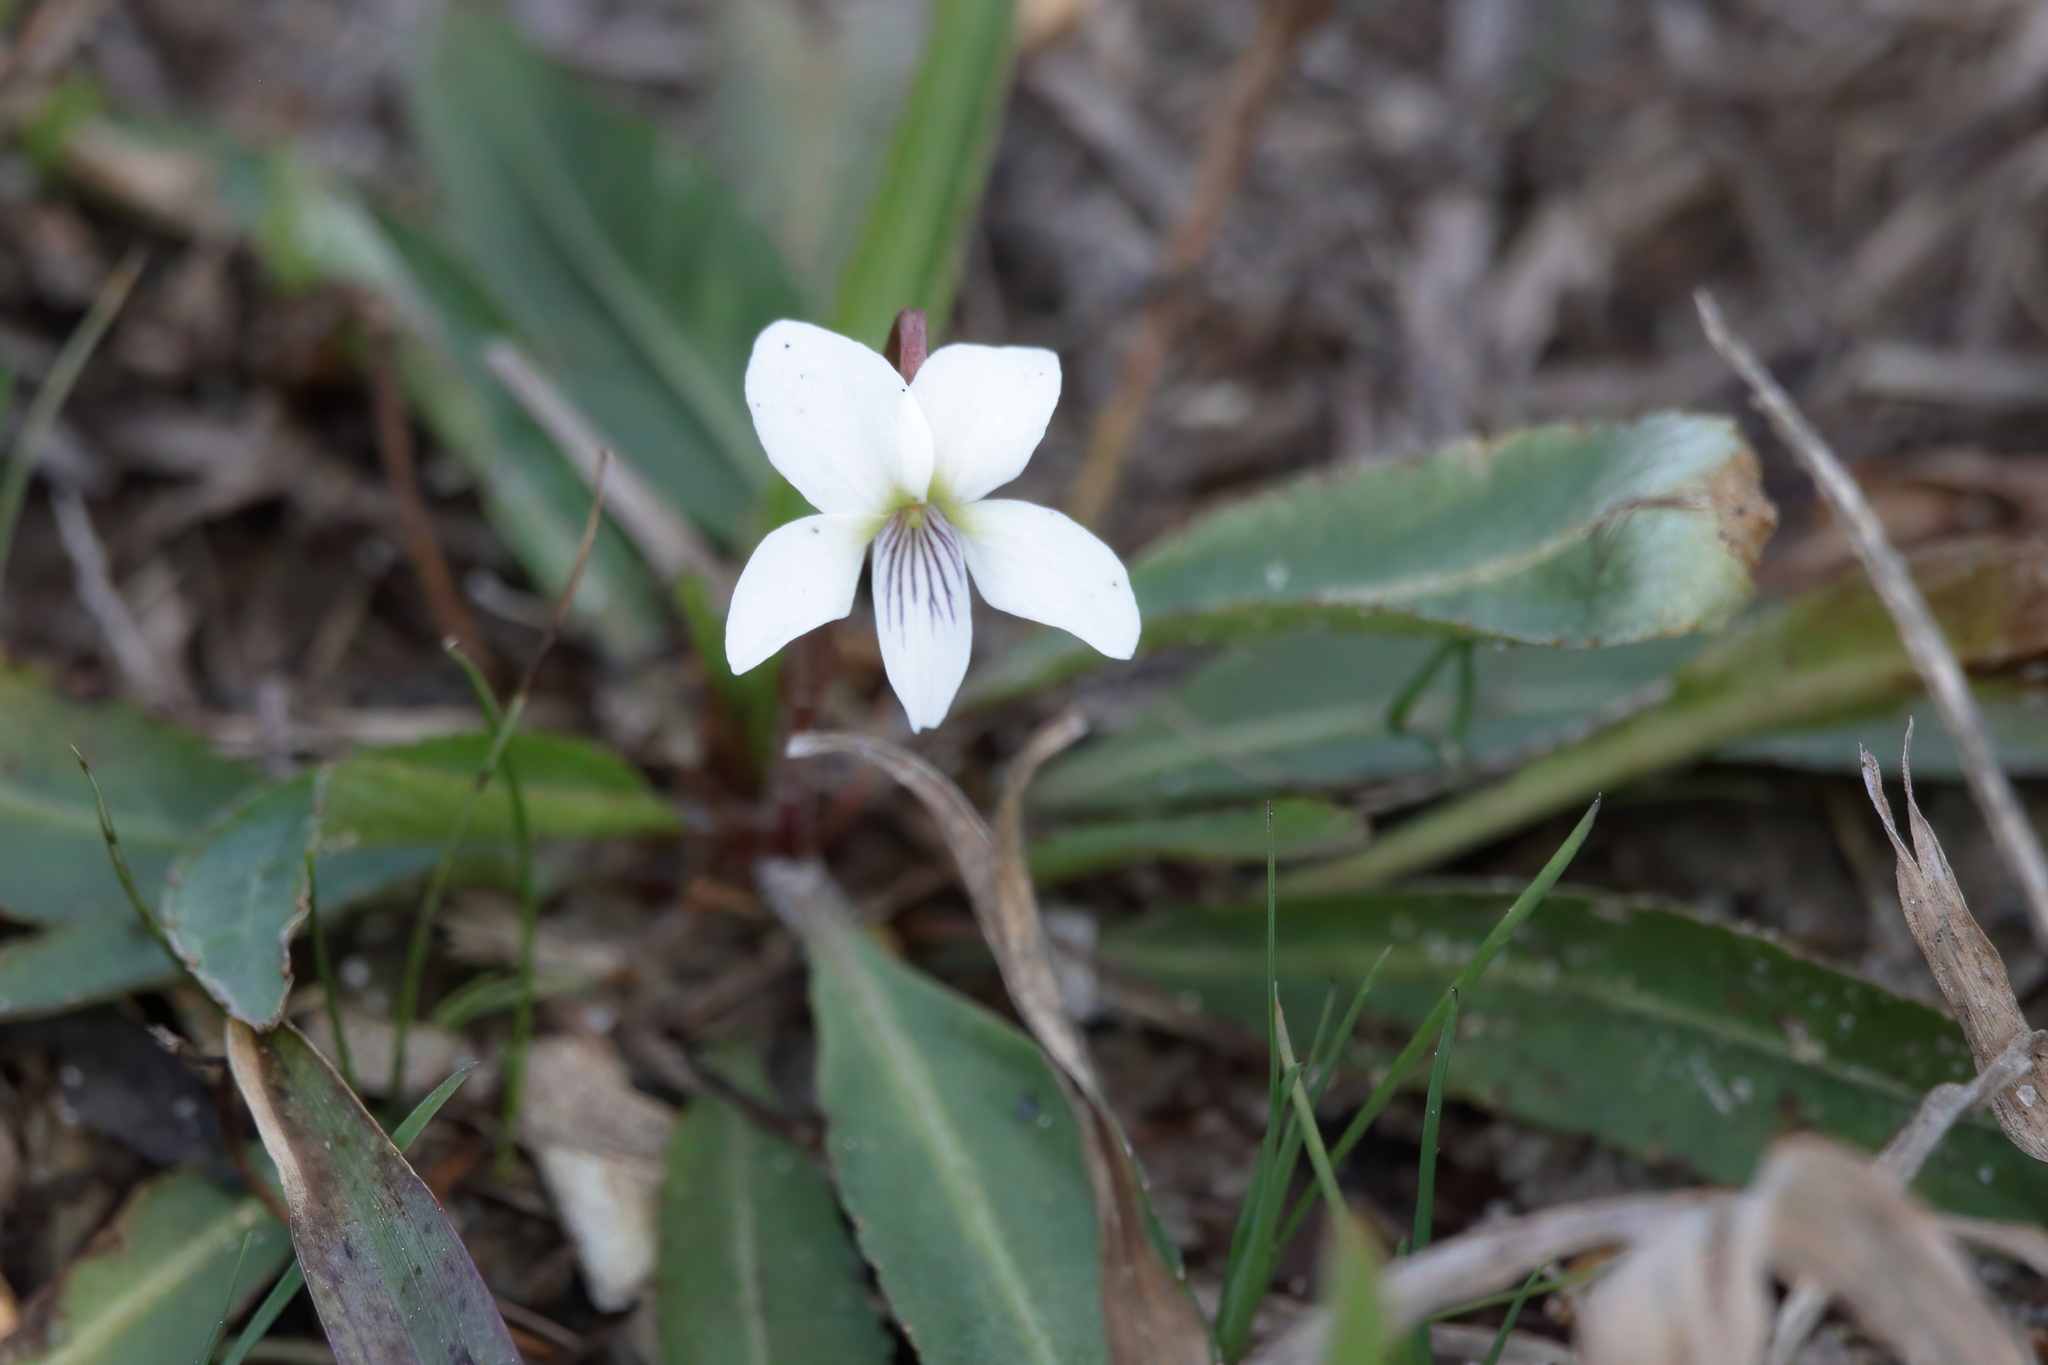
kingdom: Plantae
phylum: Tracheophyta
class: Magnoliopsida
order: Malpighiales
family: Violaceae
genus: Viola
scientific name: Viola lanceolata
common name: Bog white violet
